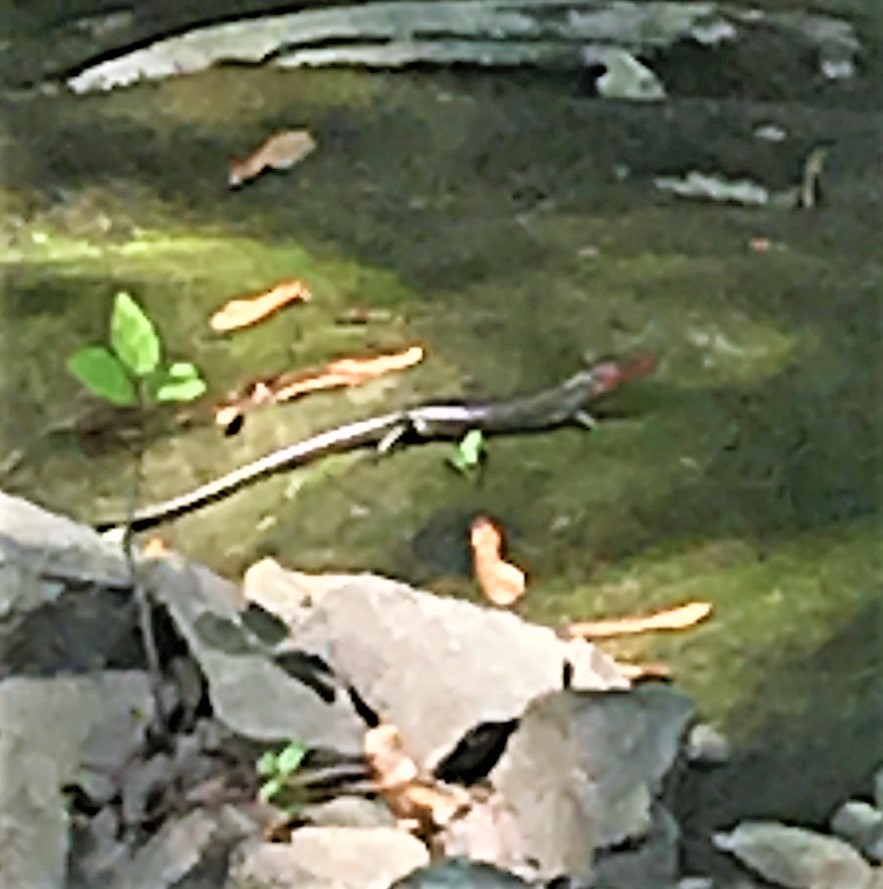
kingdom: Animalia
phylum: Chordata
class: Squamata
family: Scincidae
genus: Plestiodon
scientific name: Plestiodon fasciatus
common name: Five-lined skink
